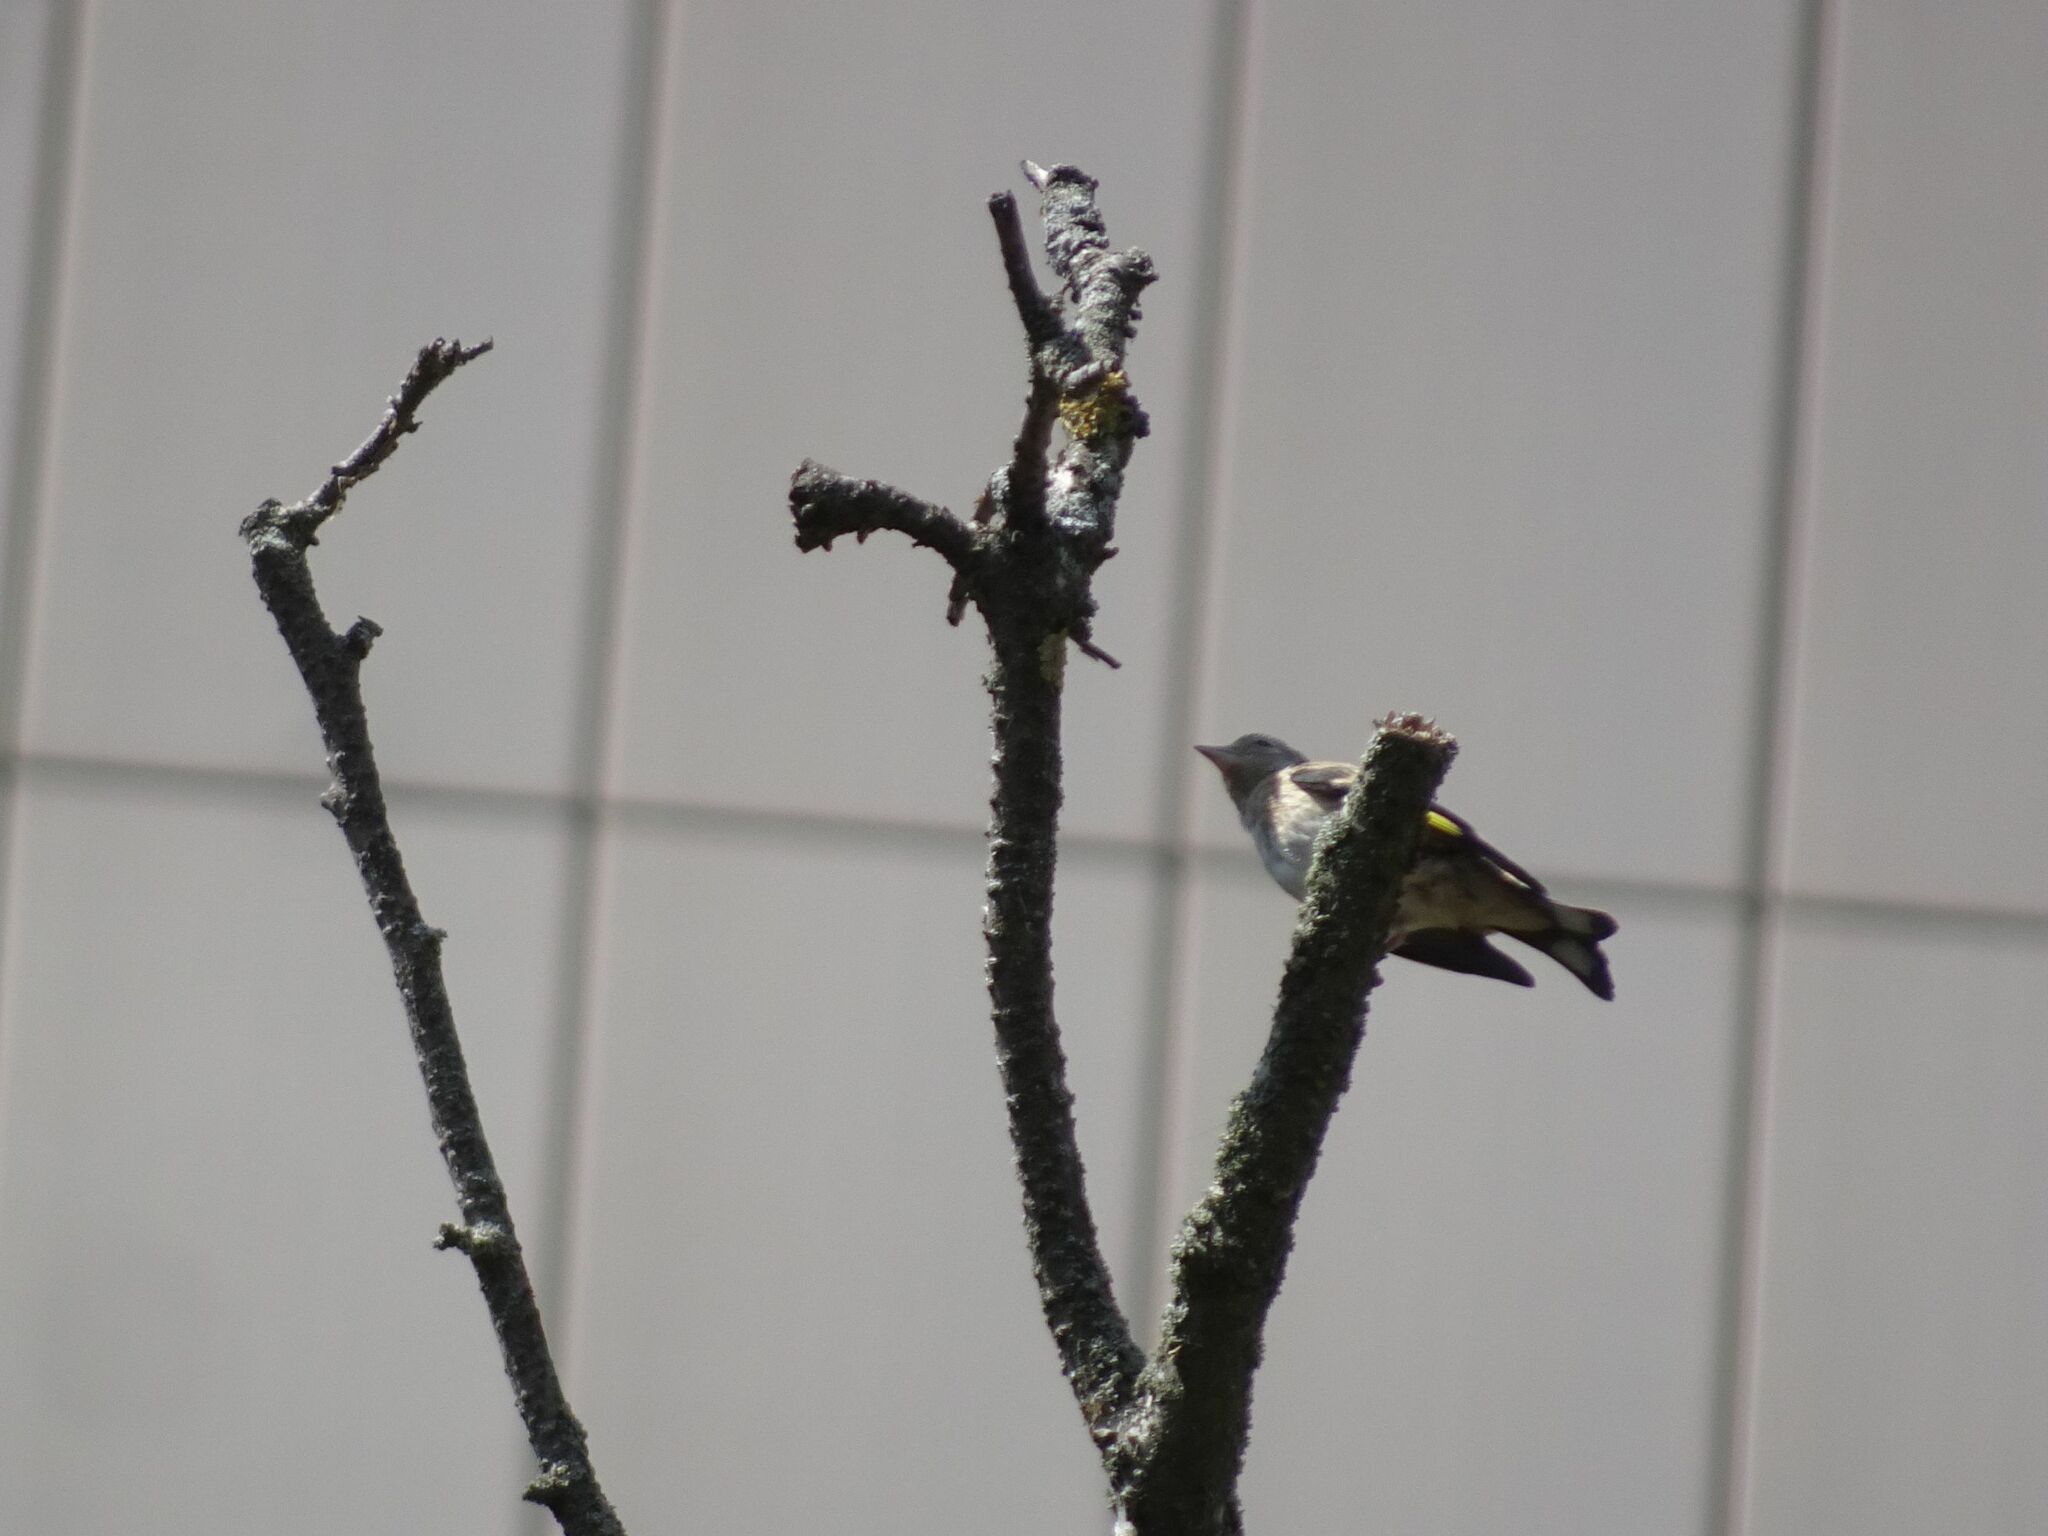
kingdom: Animalia
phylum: Chordata
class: Aves
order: Passeriformes
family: Fringillidae
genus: Carduelis
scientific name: Carduelis carduelis
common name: European goldfinch
